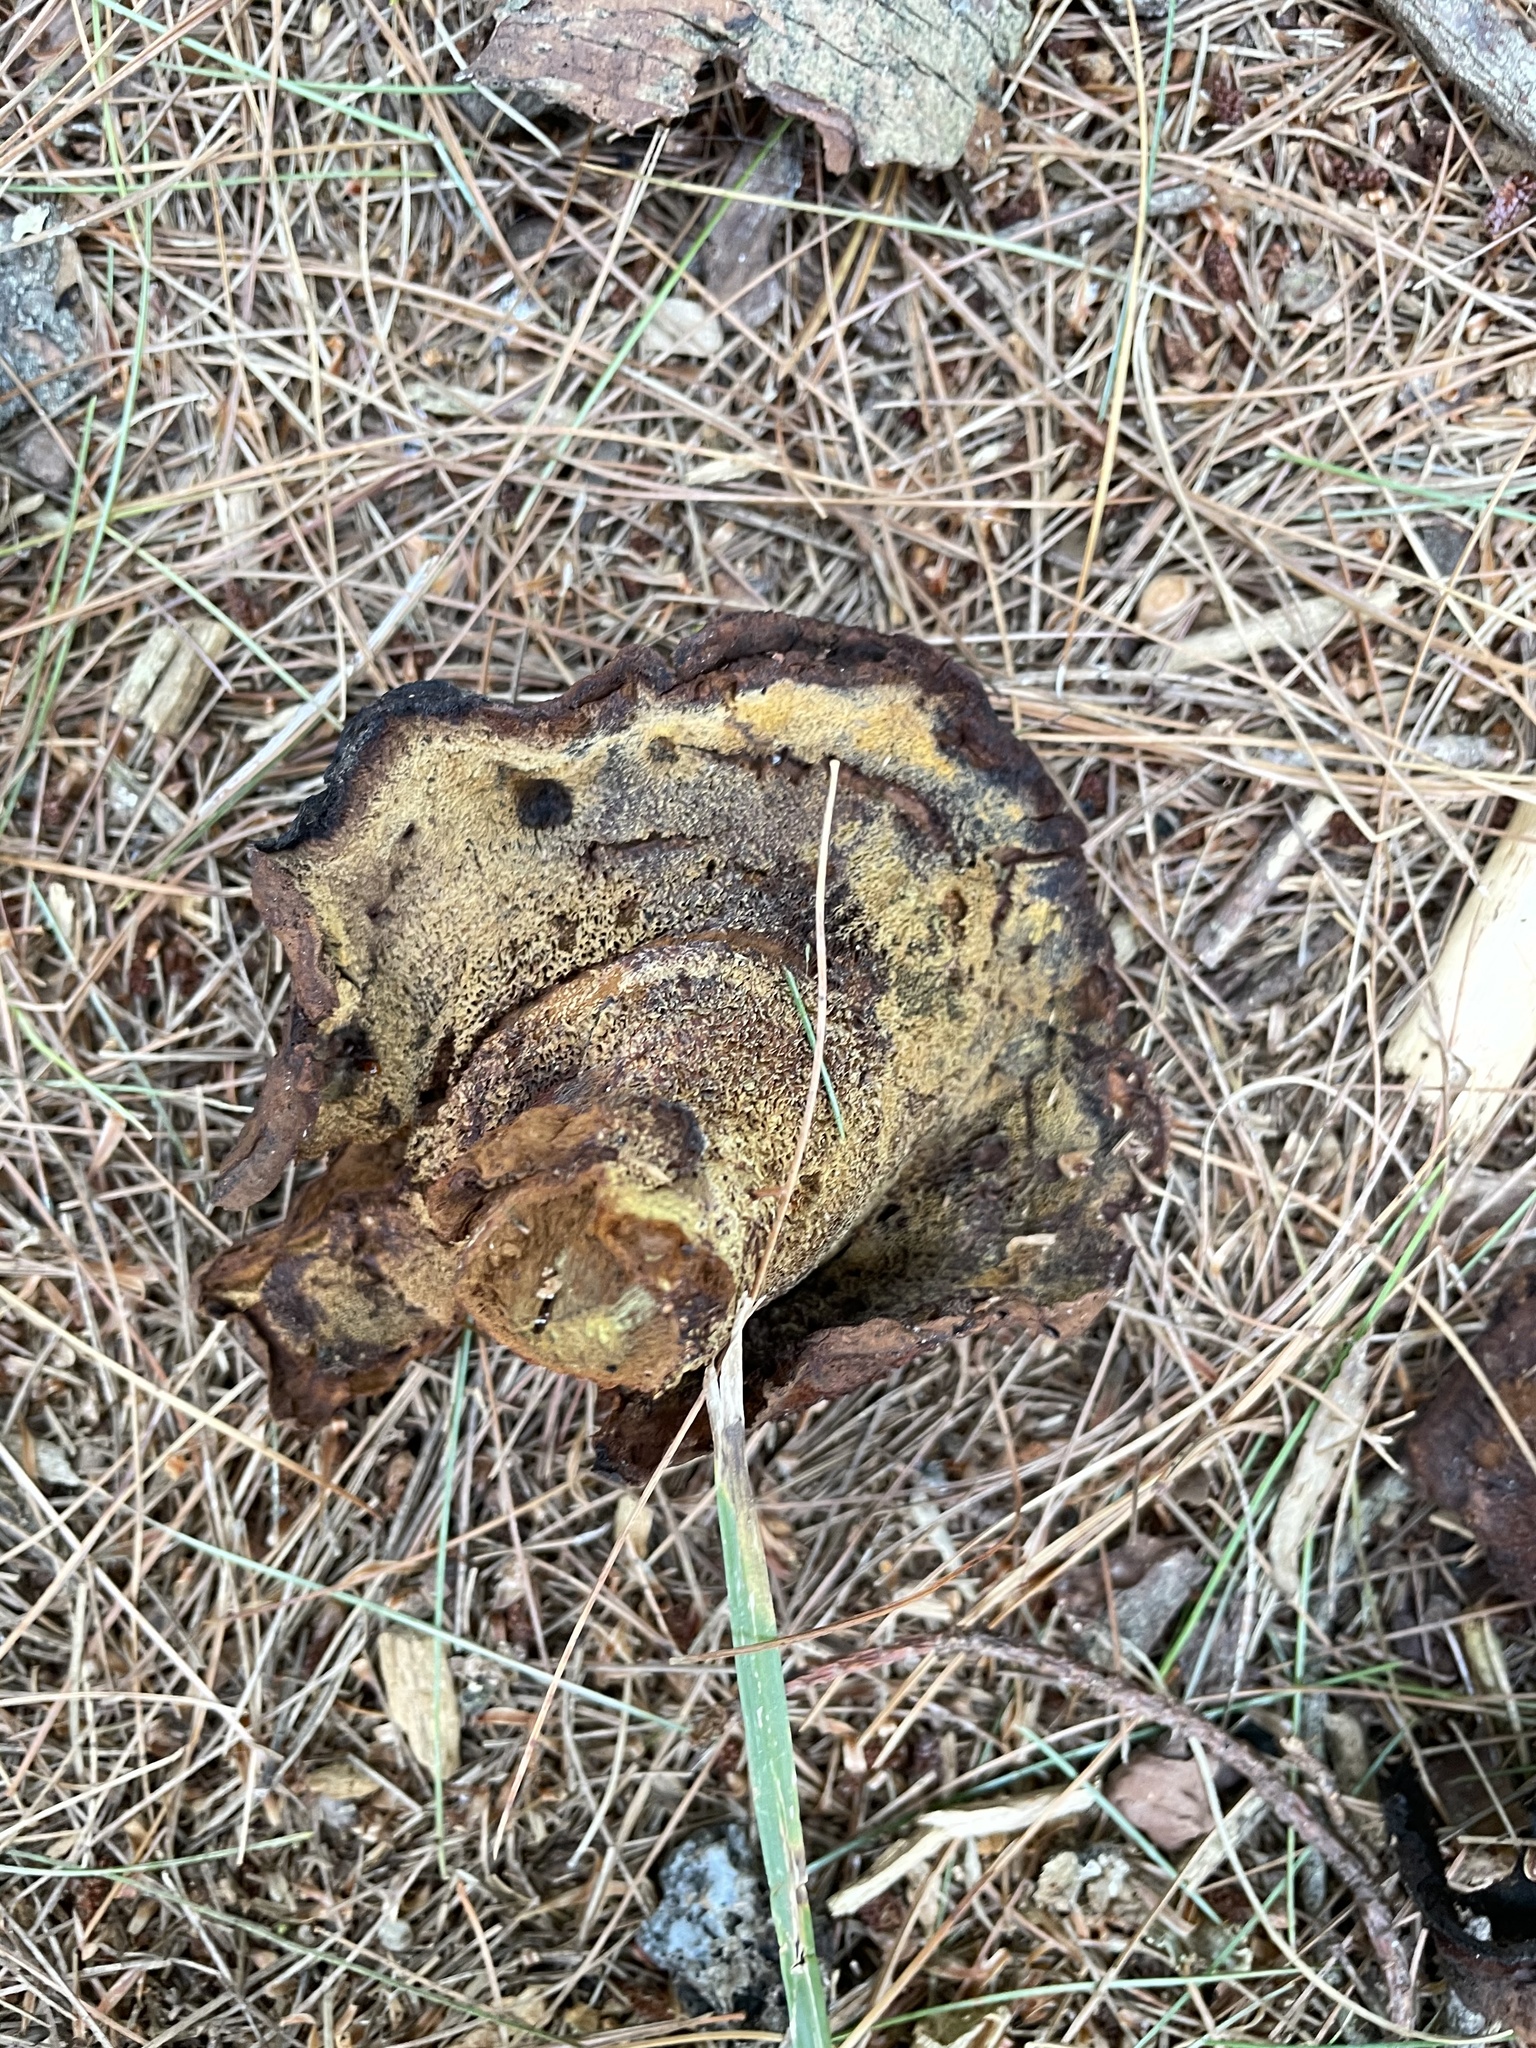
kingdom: Fungi
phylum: Basidiomycota
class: Agaricomycetes
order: Polyporales
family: Laetiporaceae
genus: Phaeolus
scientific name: Phaeolus schweinitzii
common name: Dyer's mazegill
